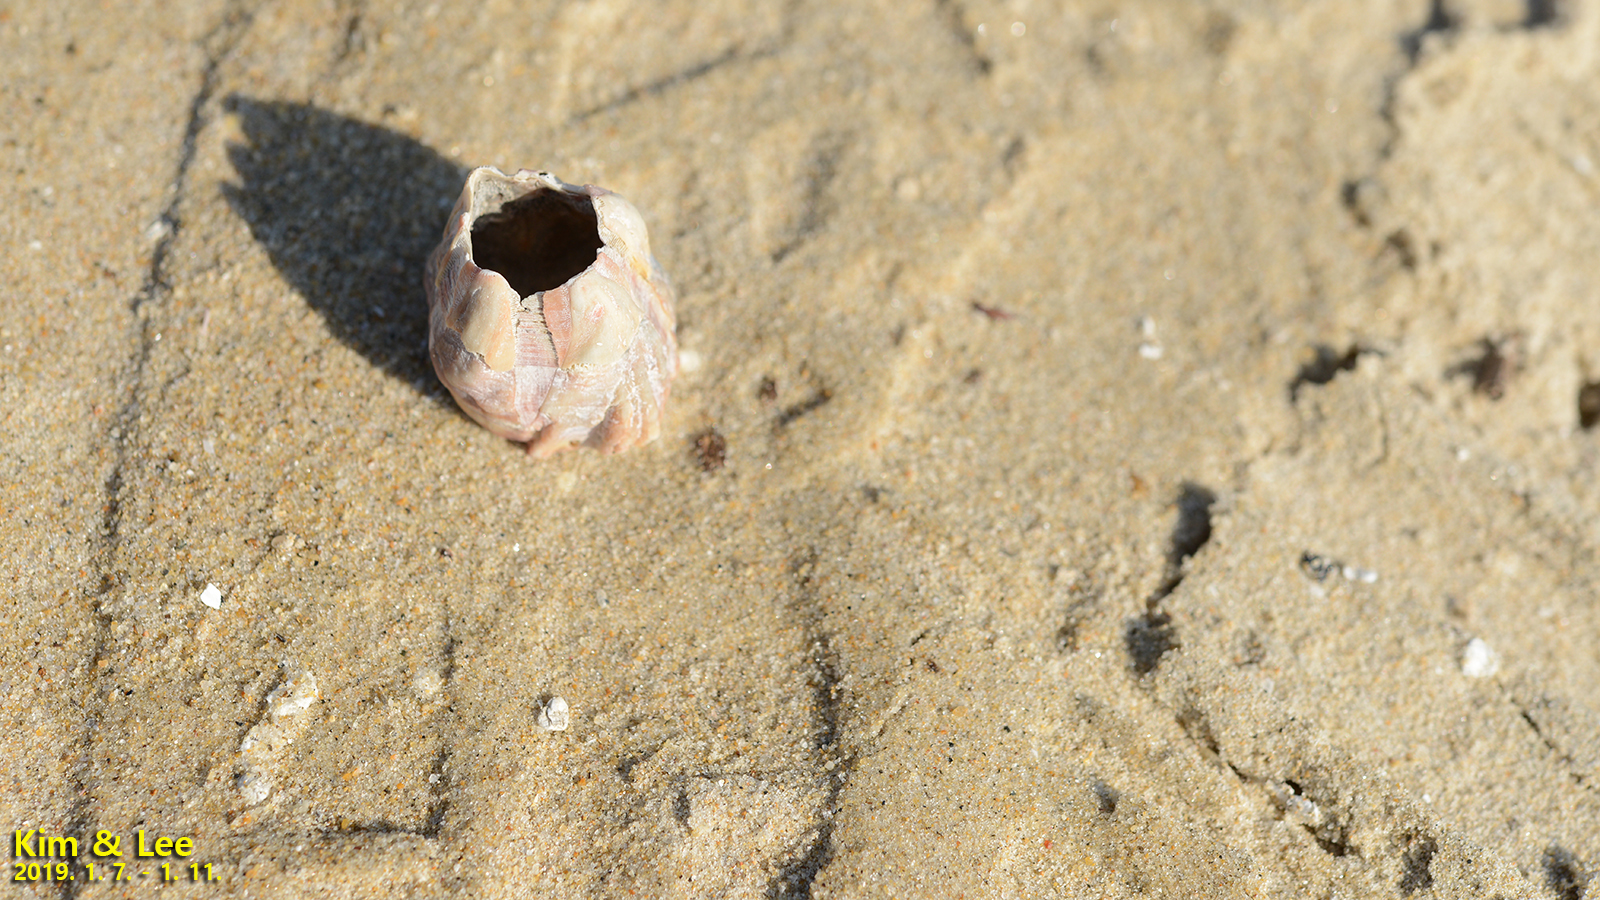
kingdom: Animalia
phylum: Arthropoda
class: Maxillopoda
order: Sessilia
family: Balanidae
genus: Megabalanus
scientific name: Megabalanus rosa
